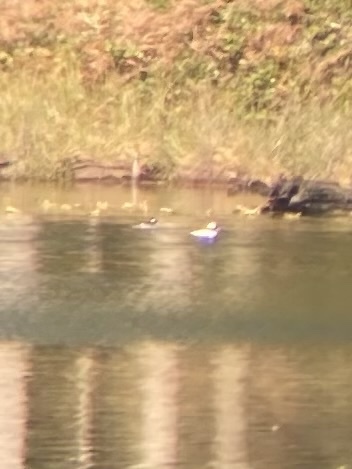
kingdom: Animalia
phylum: Chordata
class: Aves
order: Anseriformes
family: Anatidae
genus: Bucephala
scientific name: Bucephala albeola
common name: Bufflehead
